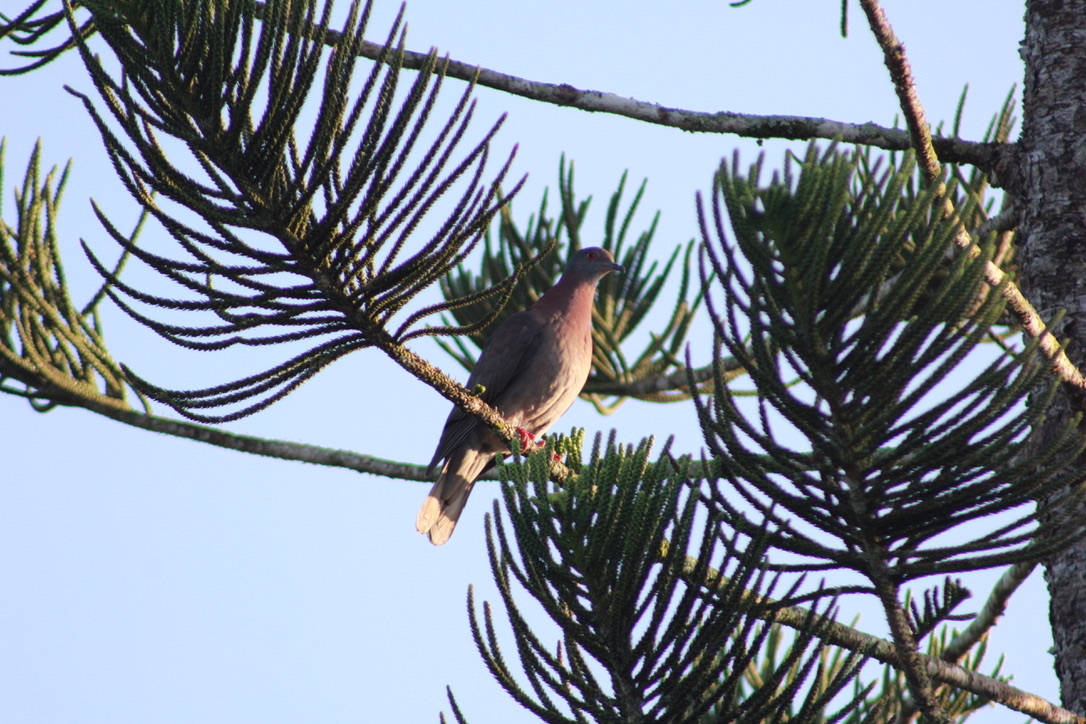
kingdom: Animalia
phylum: Chordata
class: Aves
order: Columbiformes
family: Columbidae
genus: Patagioenas
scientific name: Patagioenas cayennensis
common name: Pale-vented pigeon
